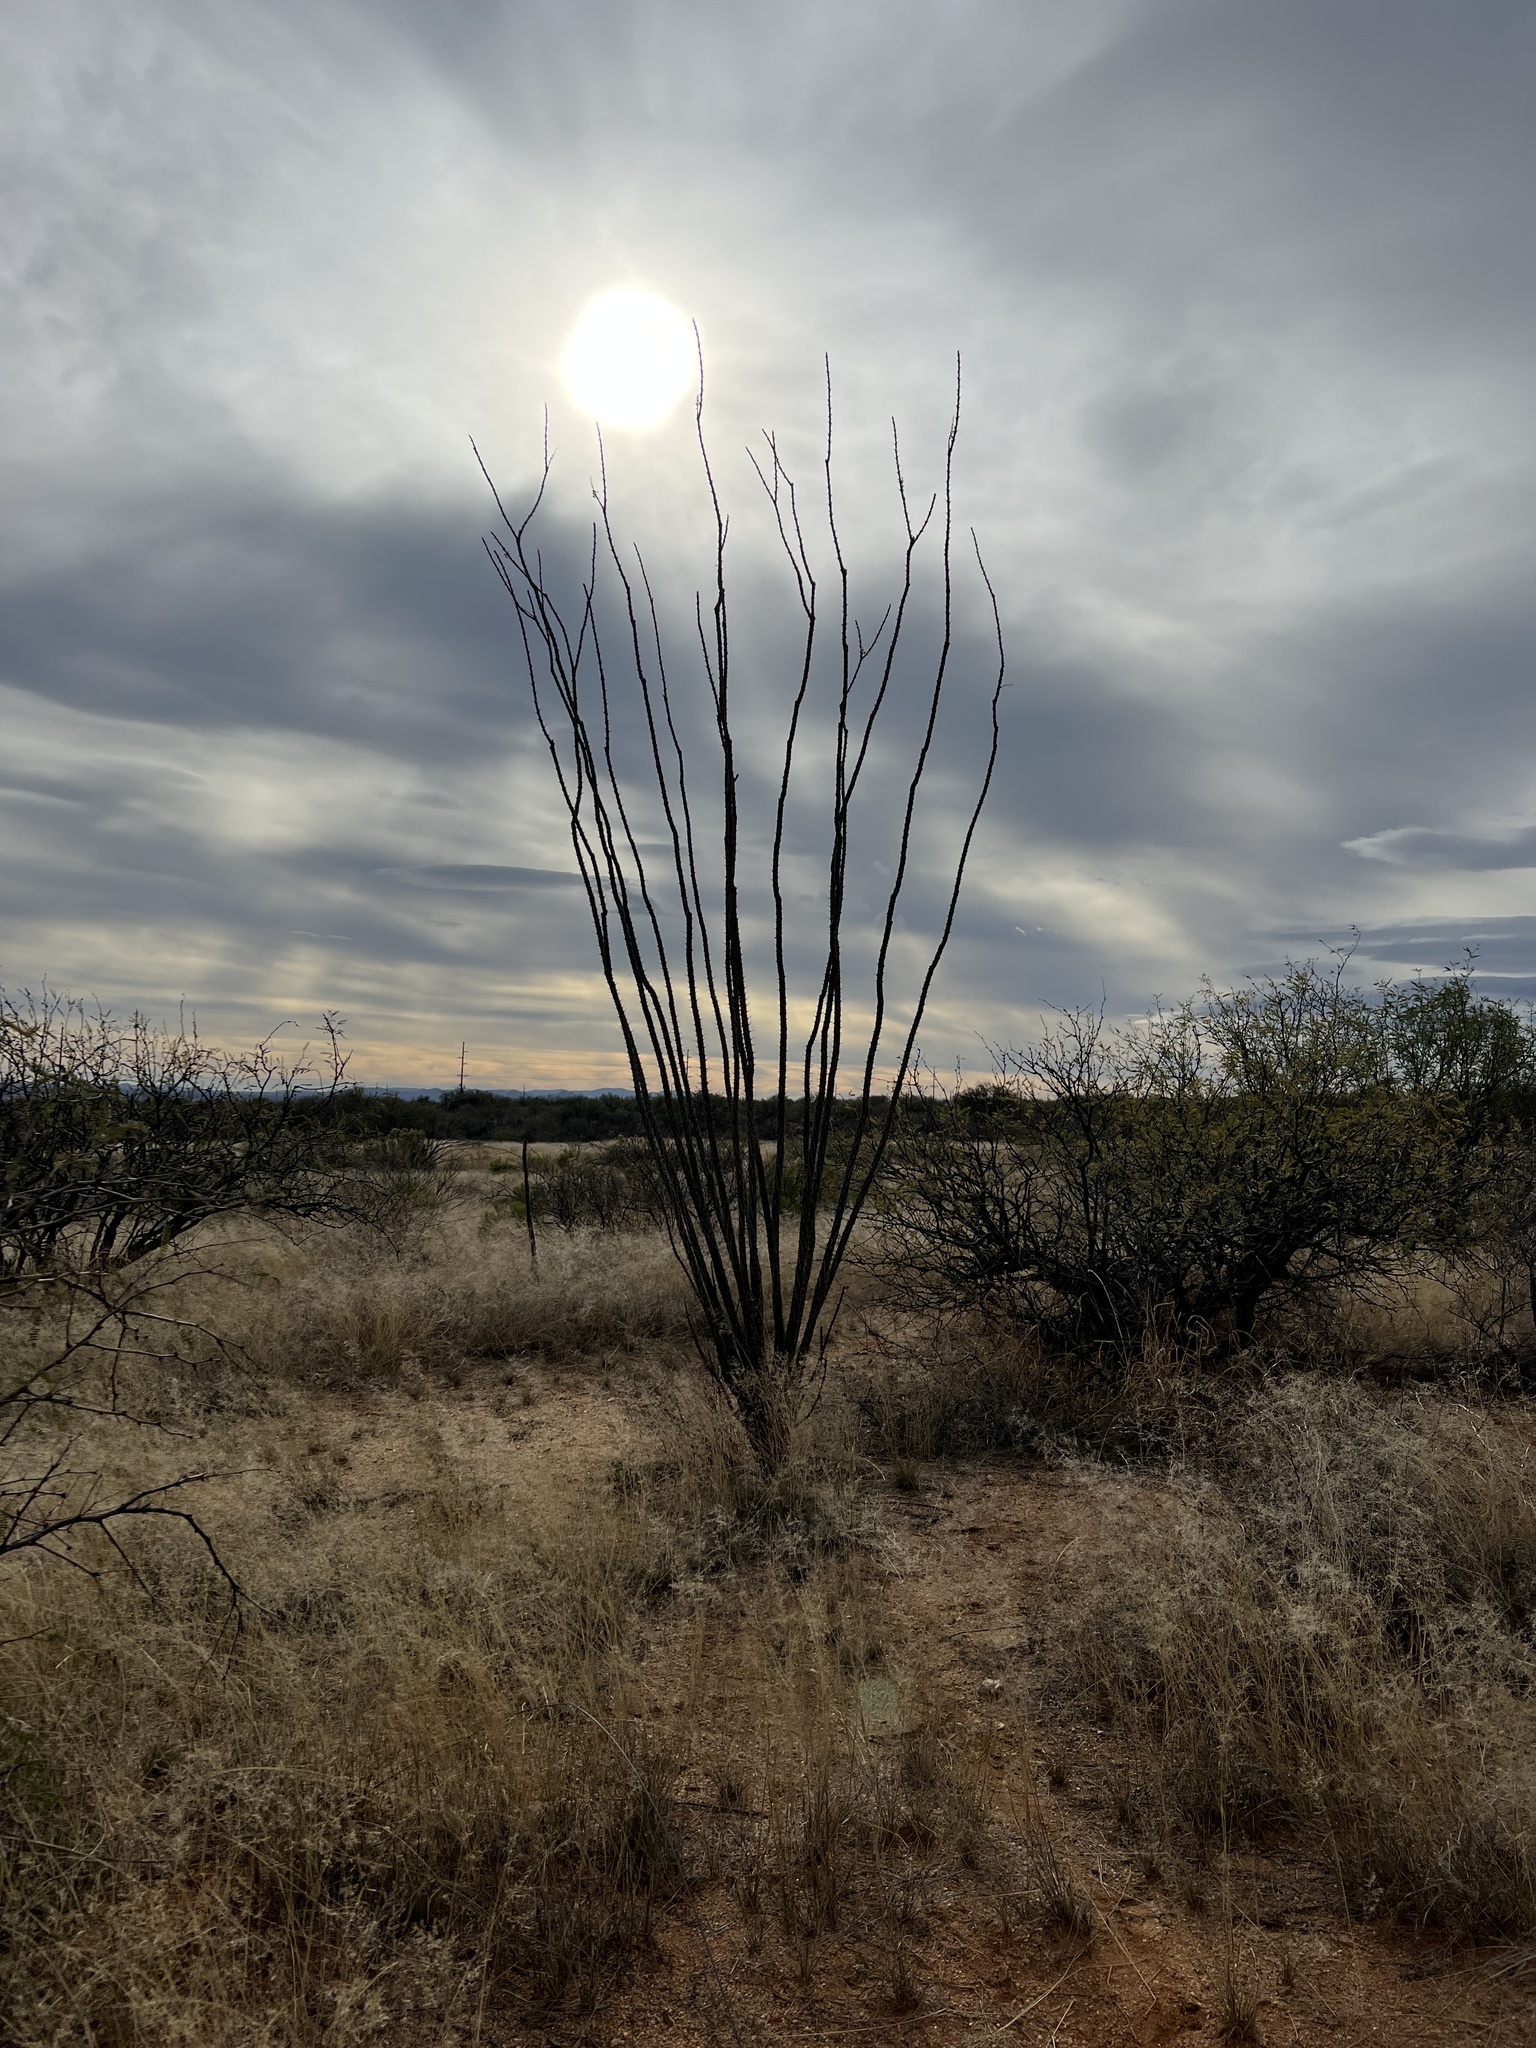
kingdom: Plantae
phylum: Tracheophyta
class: Magnoliopsida
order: Ericales
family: Fouquieriaceae
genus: Fouquieria
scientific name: Fouquieria splendens
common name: Vine-cactus
